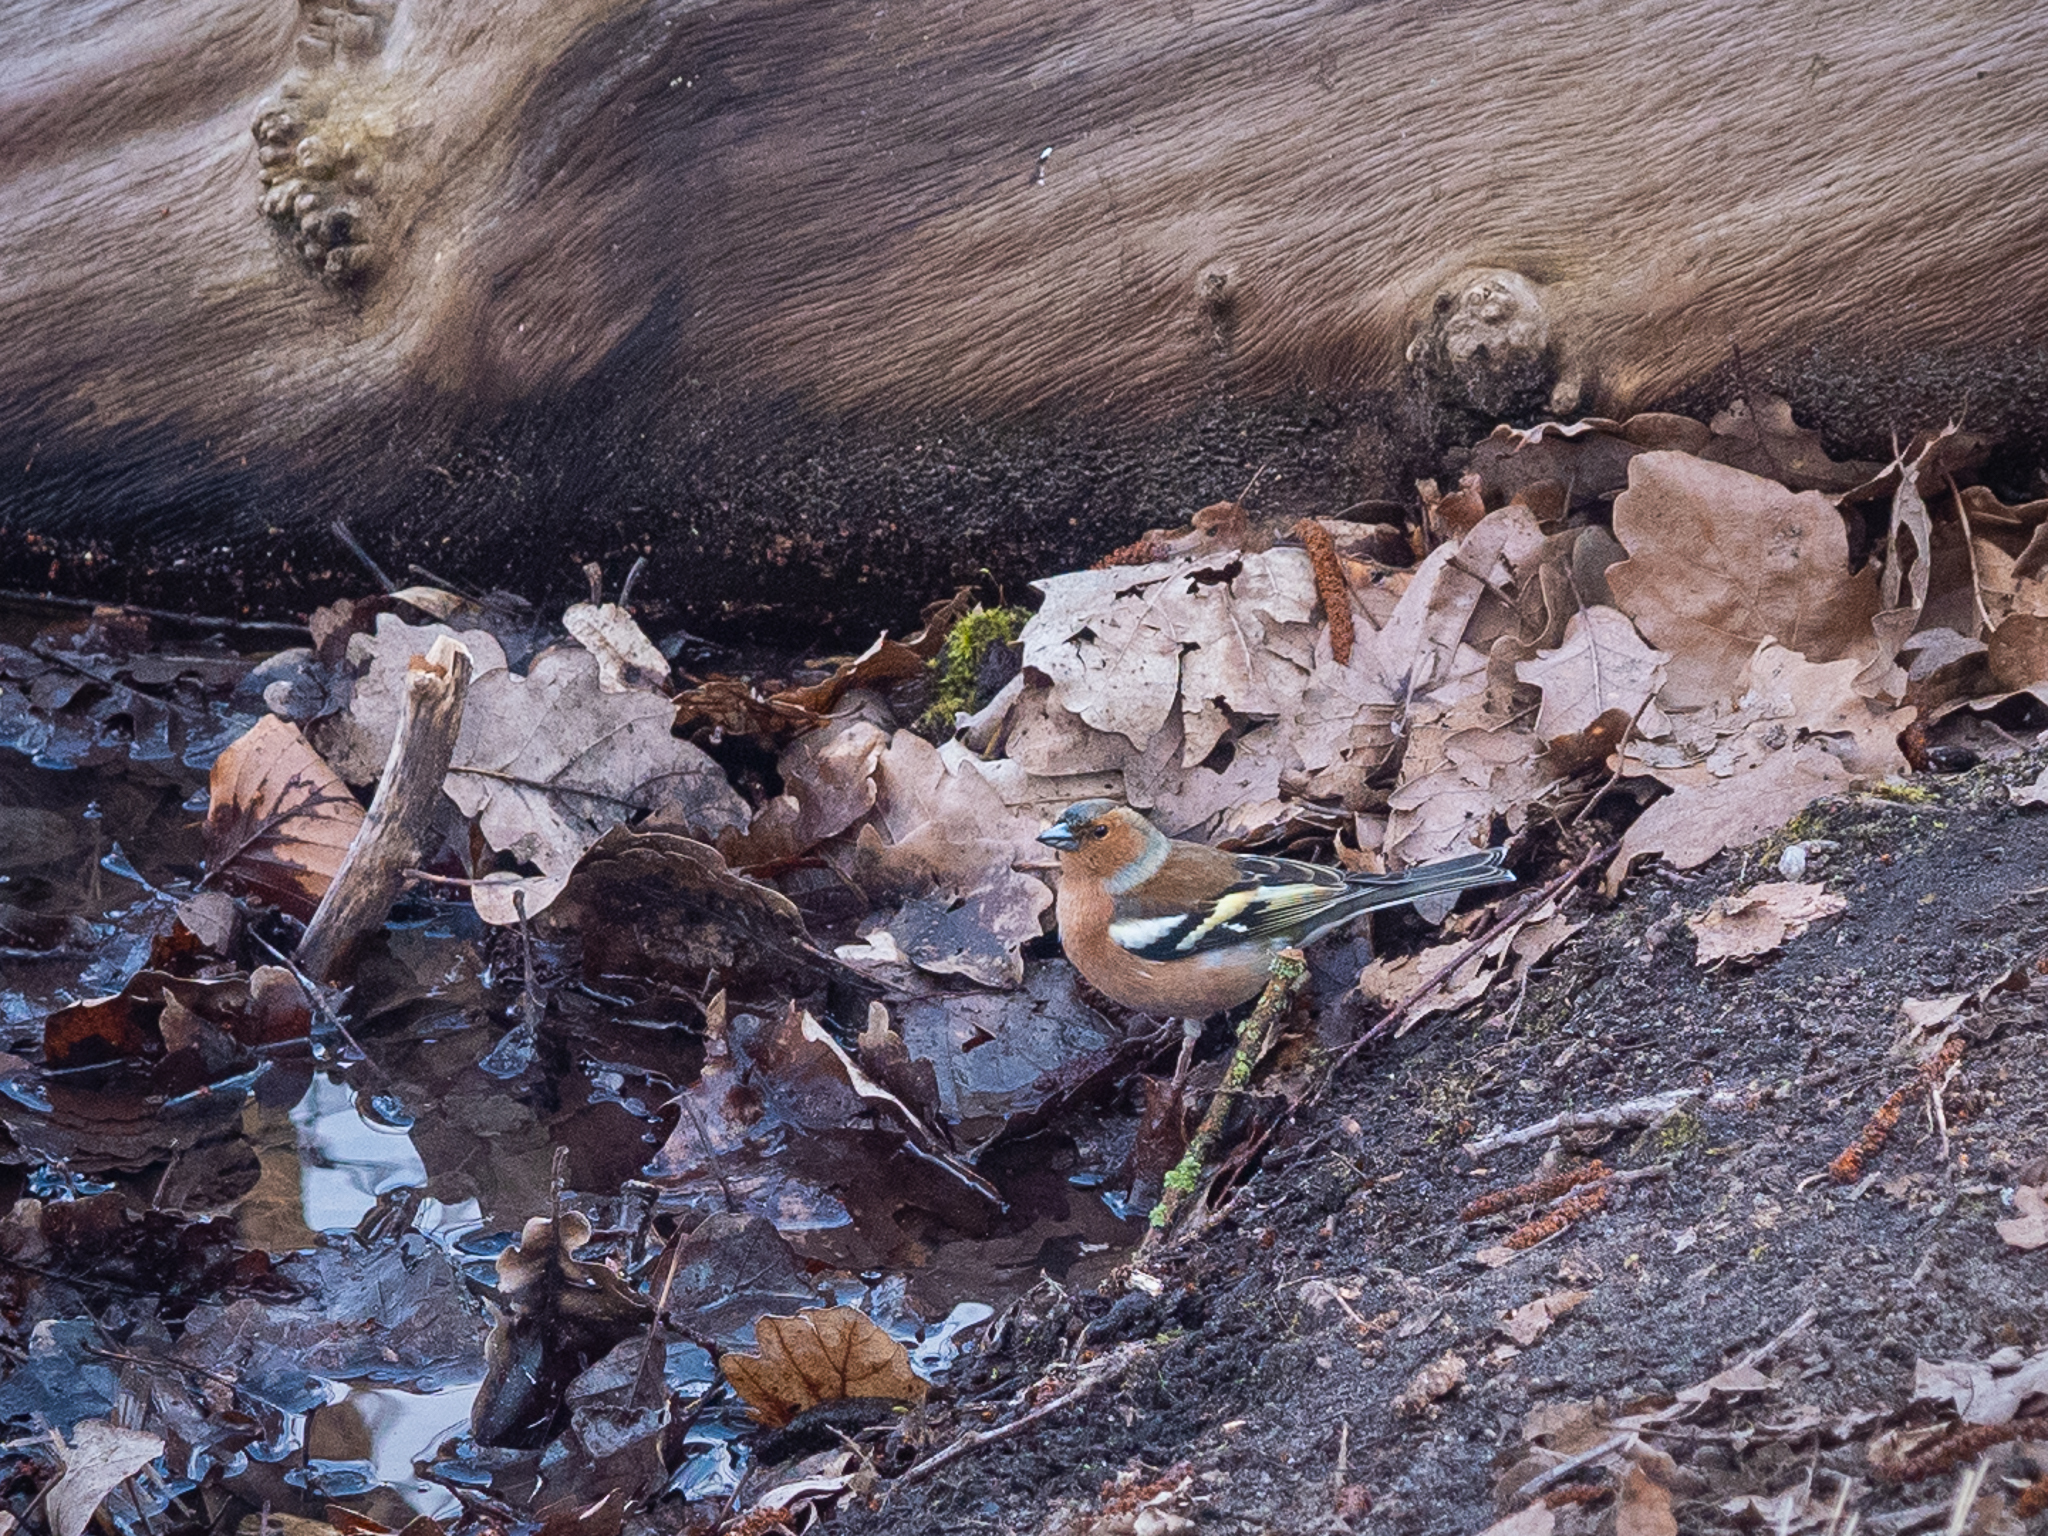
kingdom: Animalia
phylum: Chordata
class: Aves
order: Passeriformes
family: Fringillidae
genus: Fringilla
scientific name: Fringilla coelebs
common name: Common chaffinch
